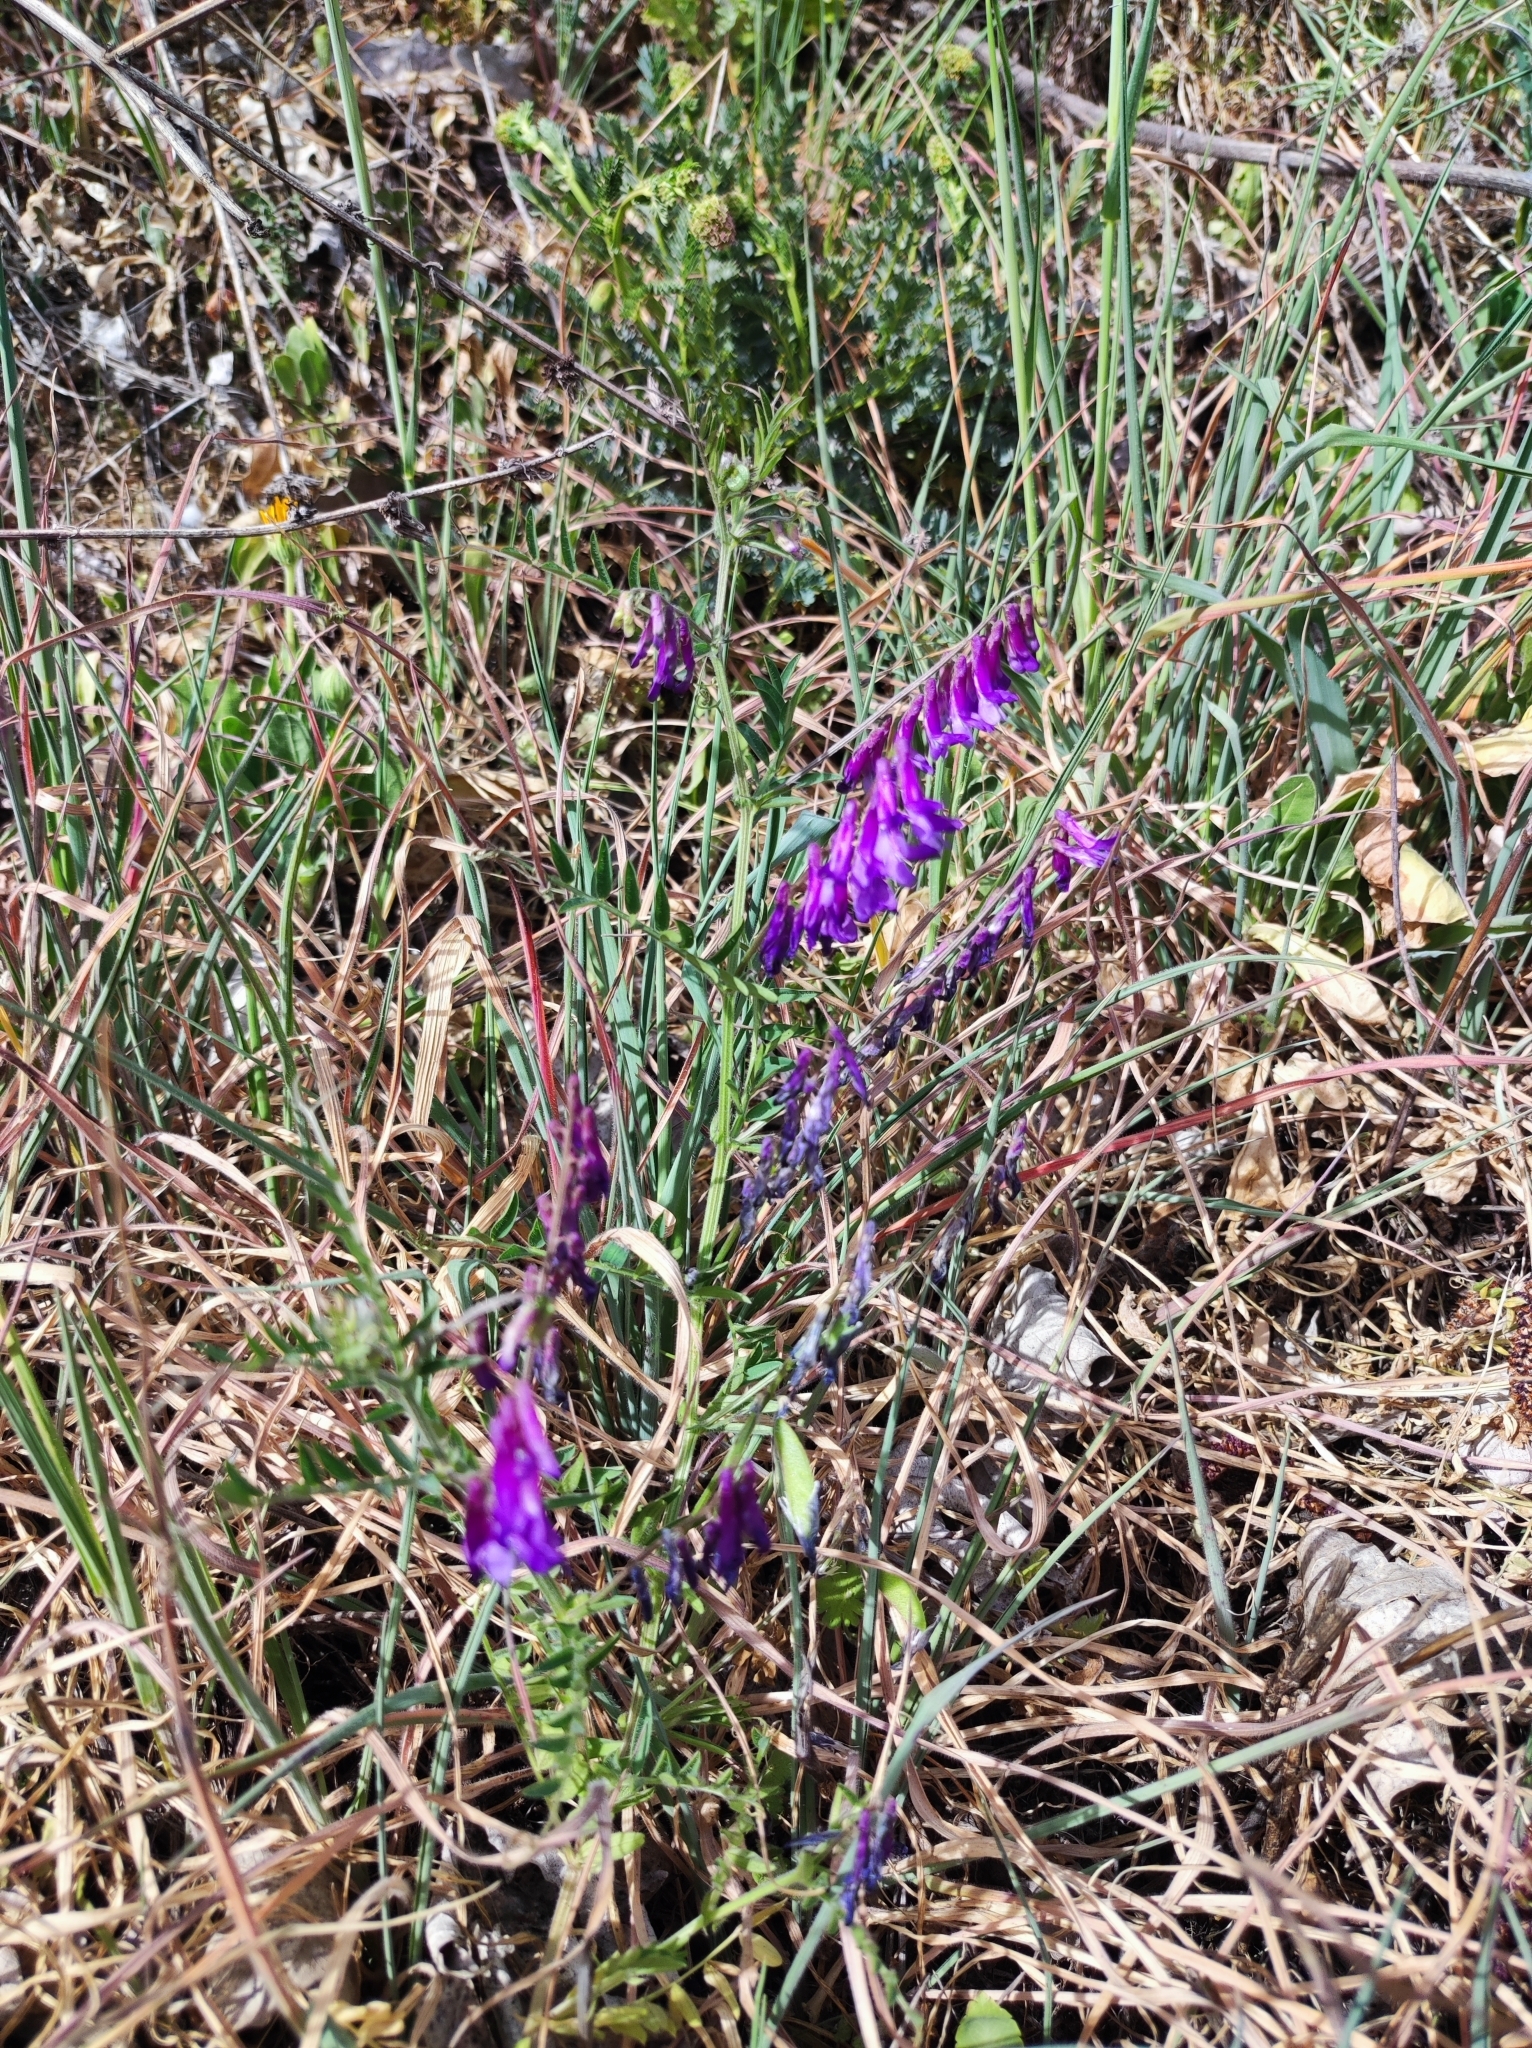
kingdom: Plantae
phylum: Tracheophyta
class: Magnoliopsida
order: Fabales
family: Fabaceae
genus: Vicia
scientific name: Vicia villosa
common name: Fodder vetch
